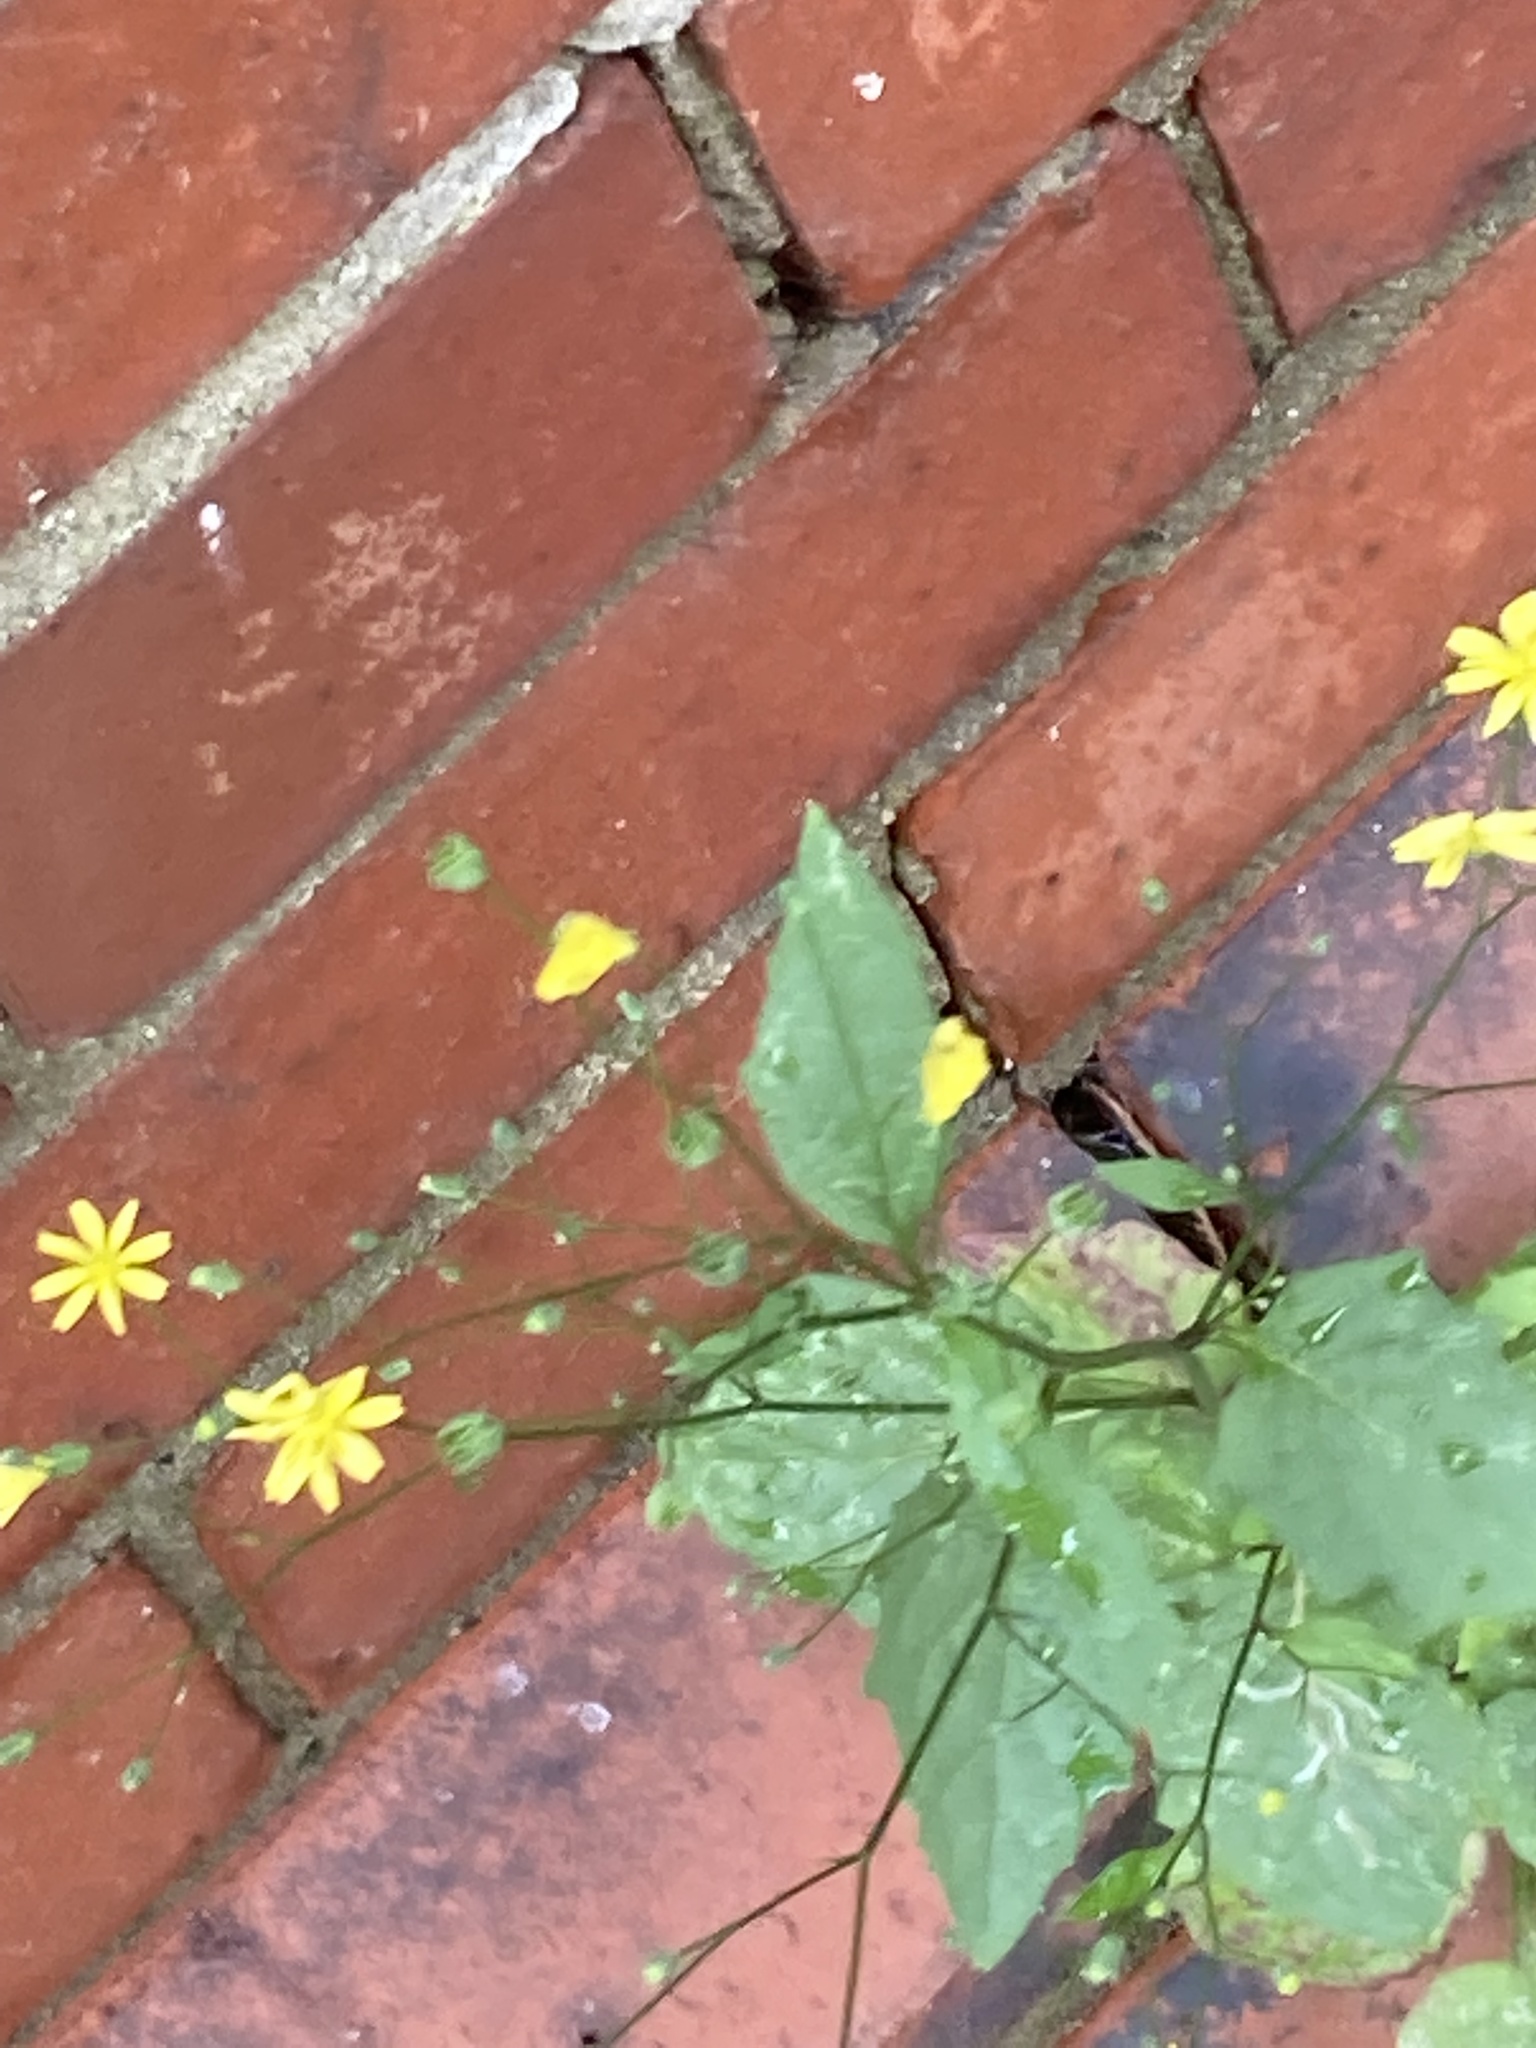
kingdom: Plantae
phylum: Tracheophyta
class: Magnoliopsida
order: Asterales
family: Asteraceae
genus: Lapsana
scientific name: Lapsana communis
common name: Nipplewort
